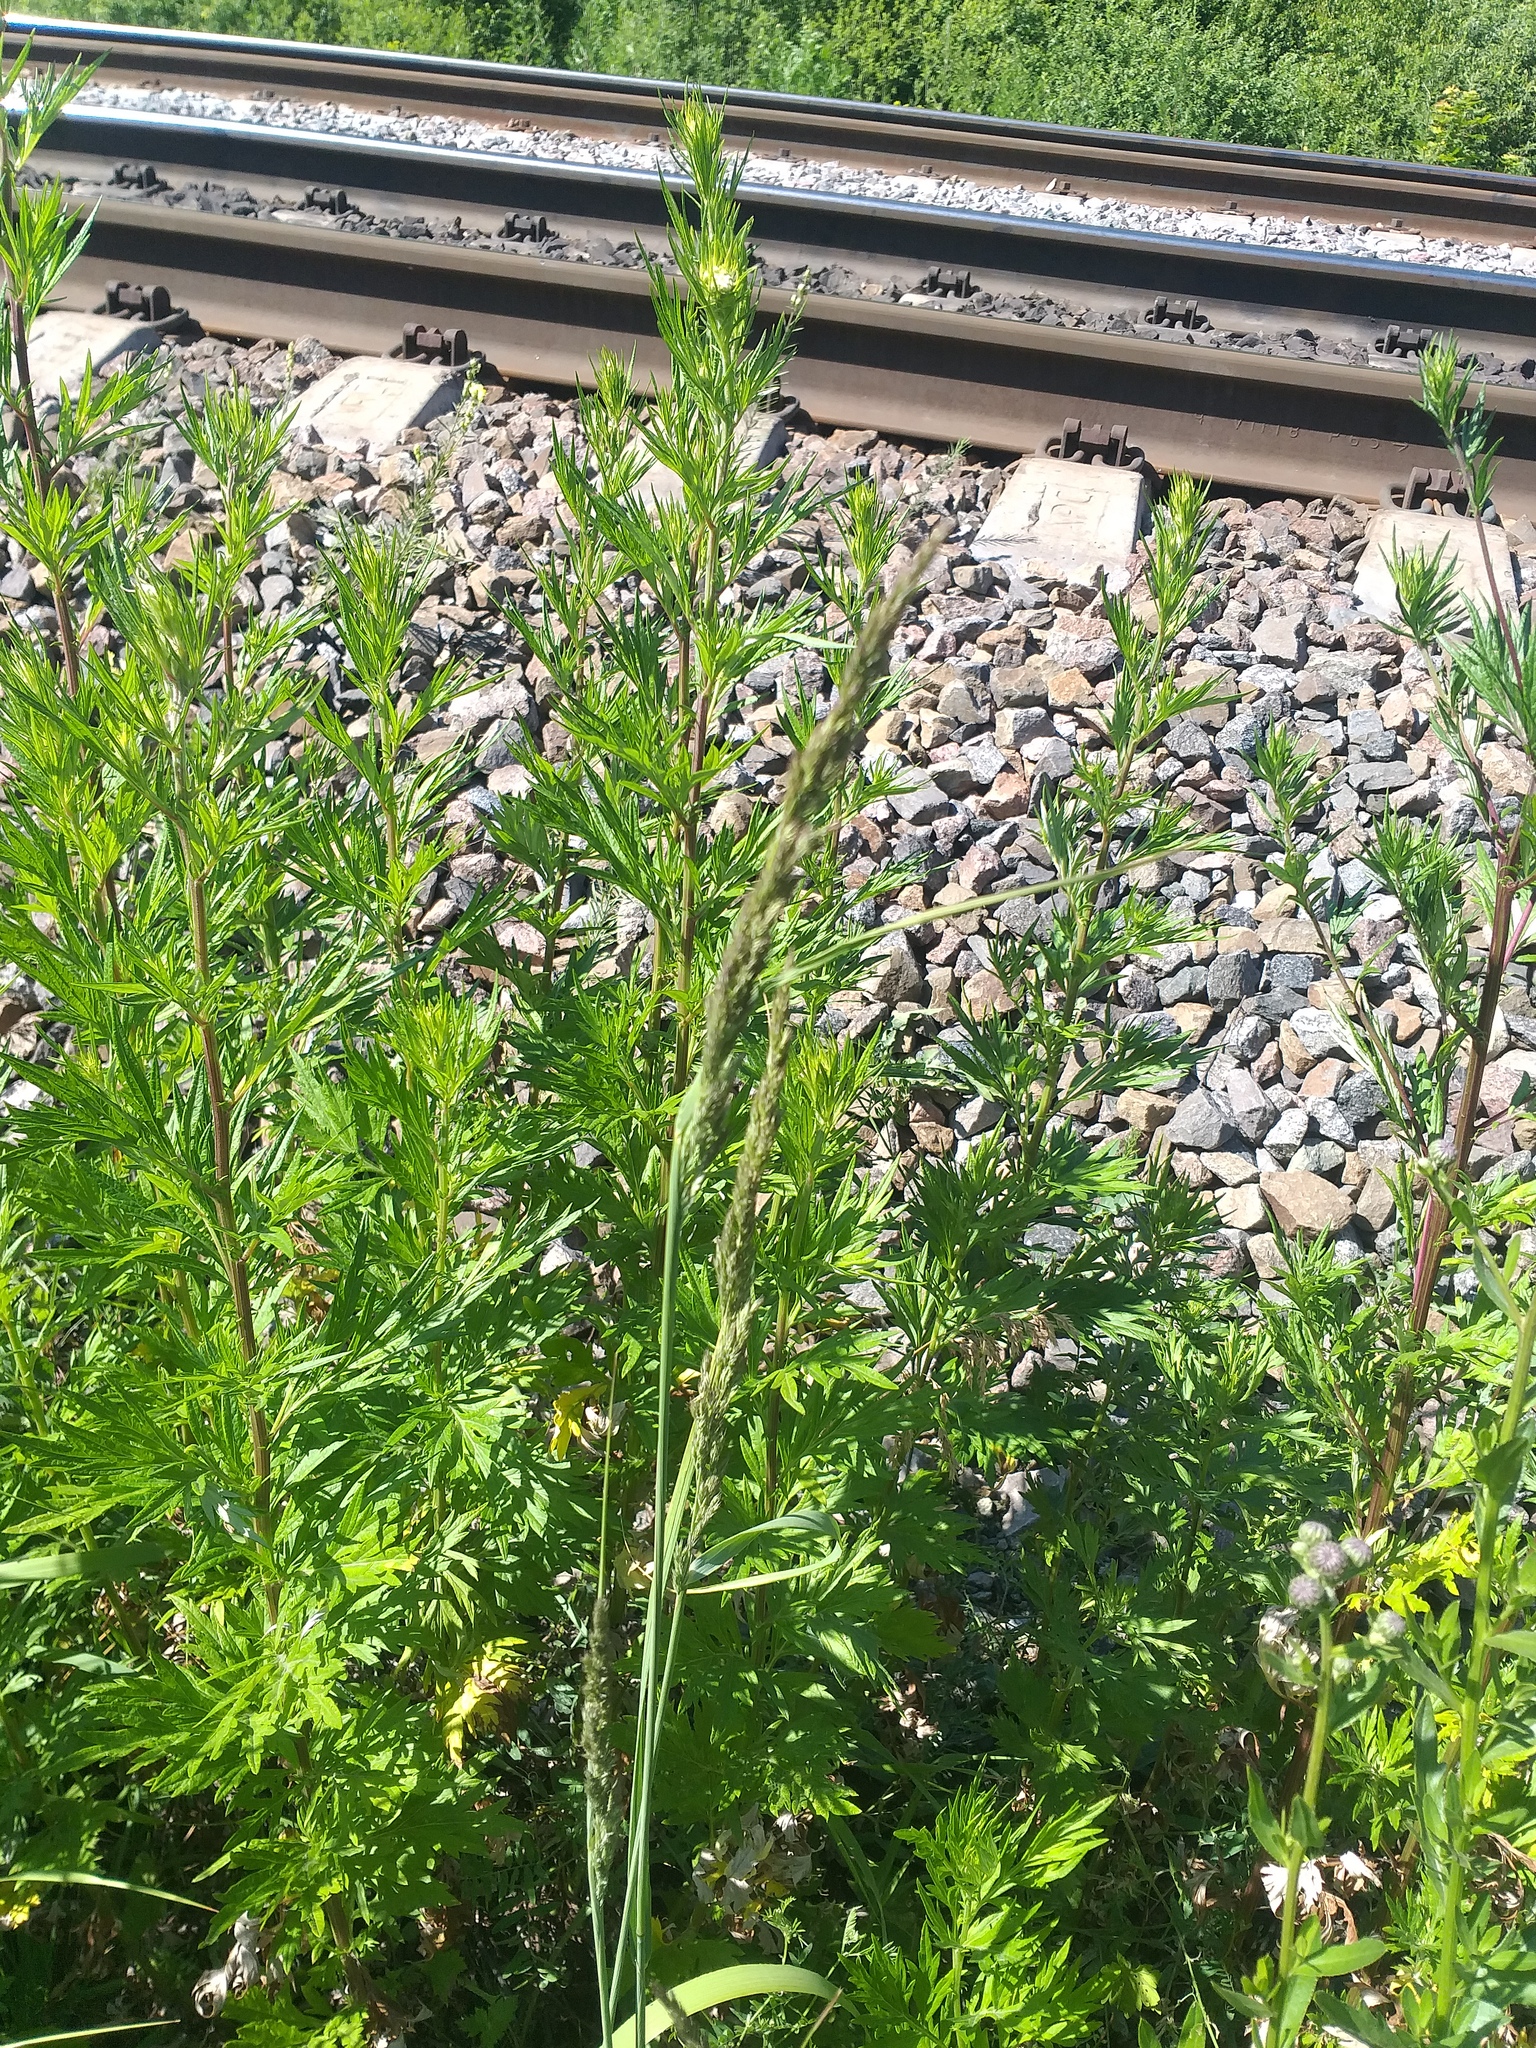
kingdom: Plantae
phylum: Tracheophyta
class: Liliopsida
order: Poales
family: Poaceae
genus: Calamagrostis
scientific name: Calamagrostis epigejos
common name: Wood small-reed
